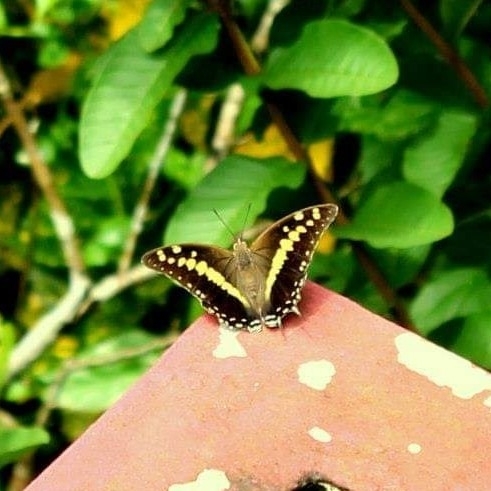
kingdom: Animalia
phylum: Arthropoda
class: Insecta
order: Lepidoptera
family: Nymphalidae
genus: Charaxes
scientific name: Charaxes solon
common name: Black rajah
